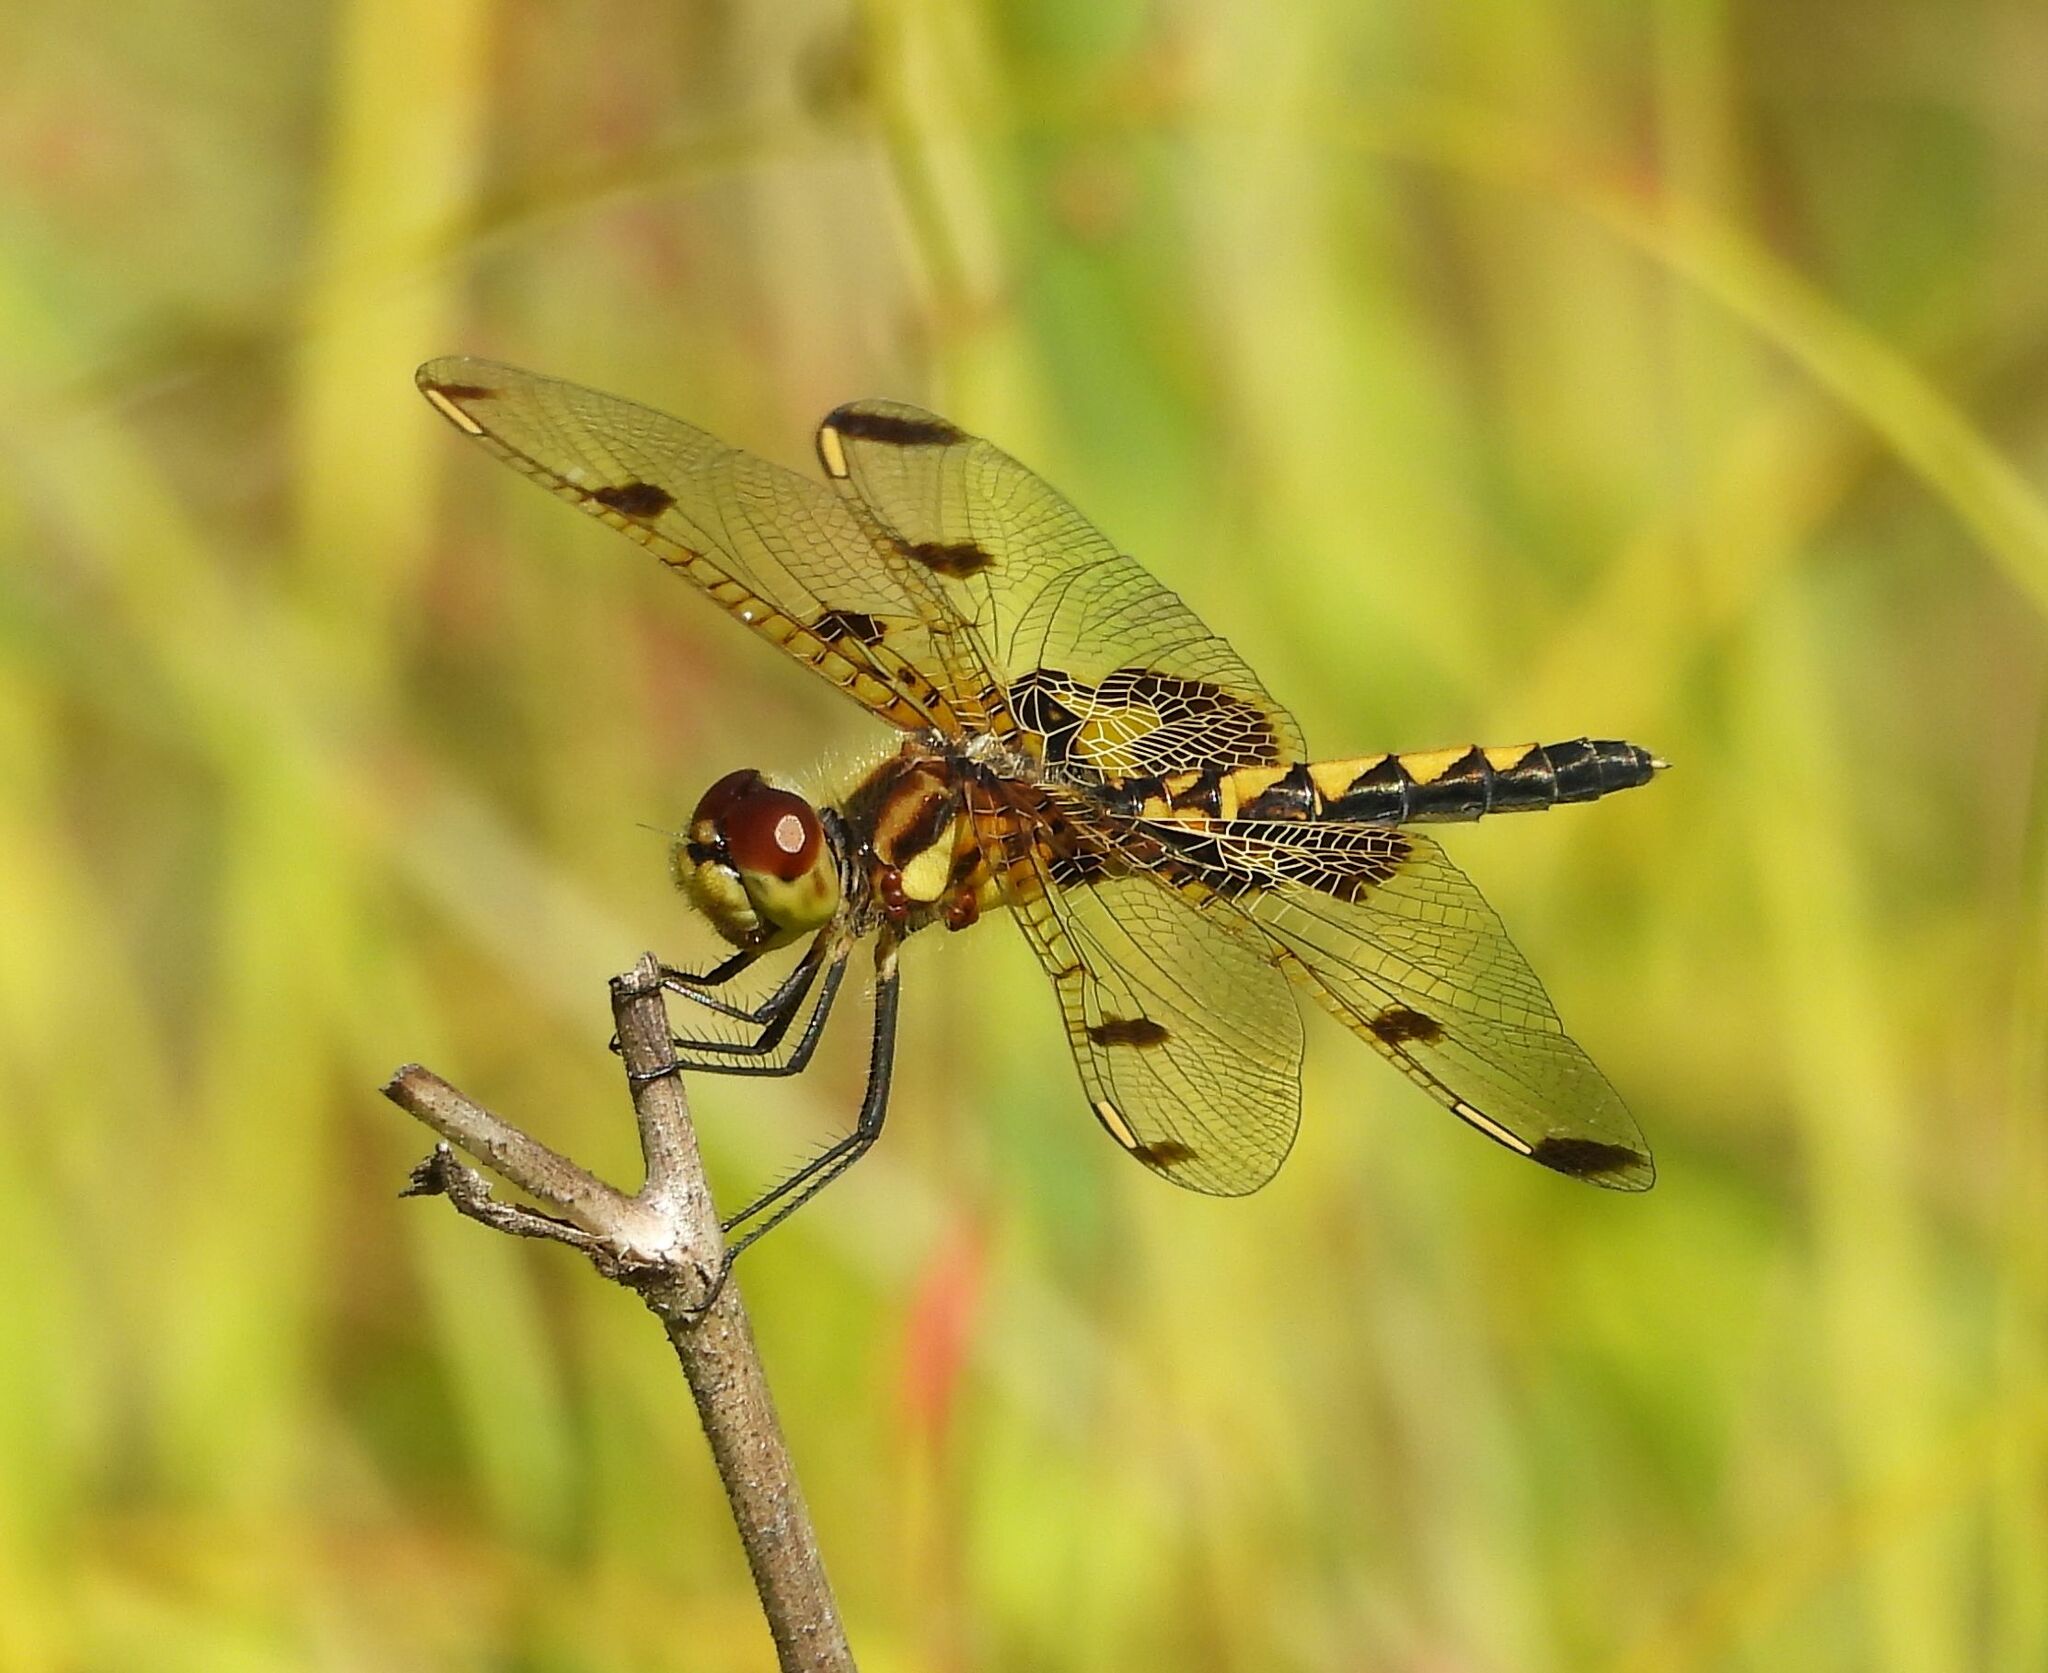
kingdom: Animalia
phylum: Arthropoda
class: Insecta
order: Odonata
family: Libellulidae
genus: Celithemis
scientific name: Celithemis elisa
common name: Calico pennant
